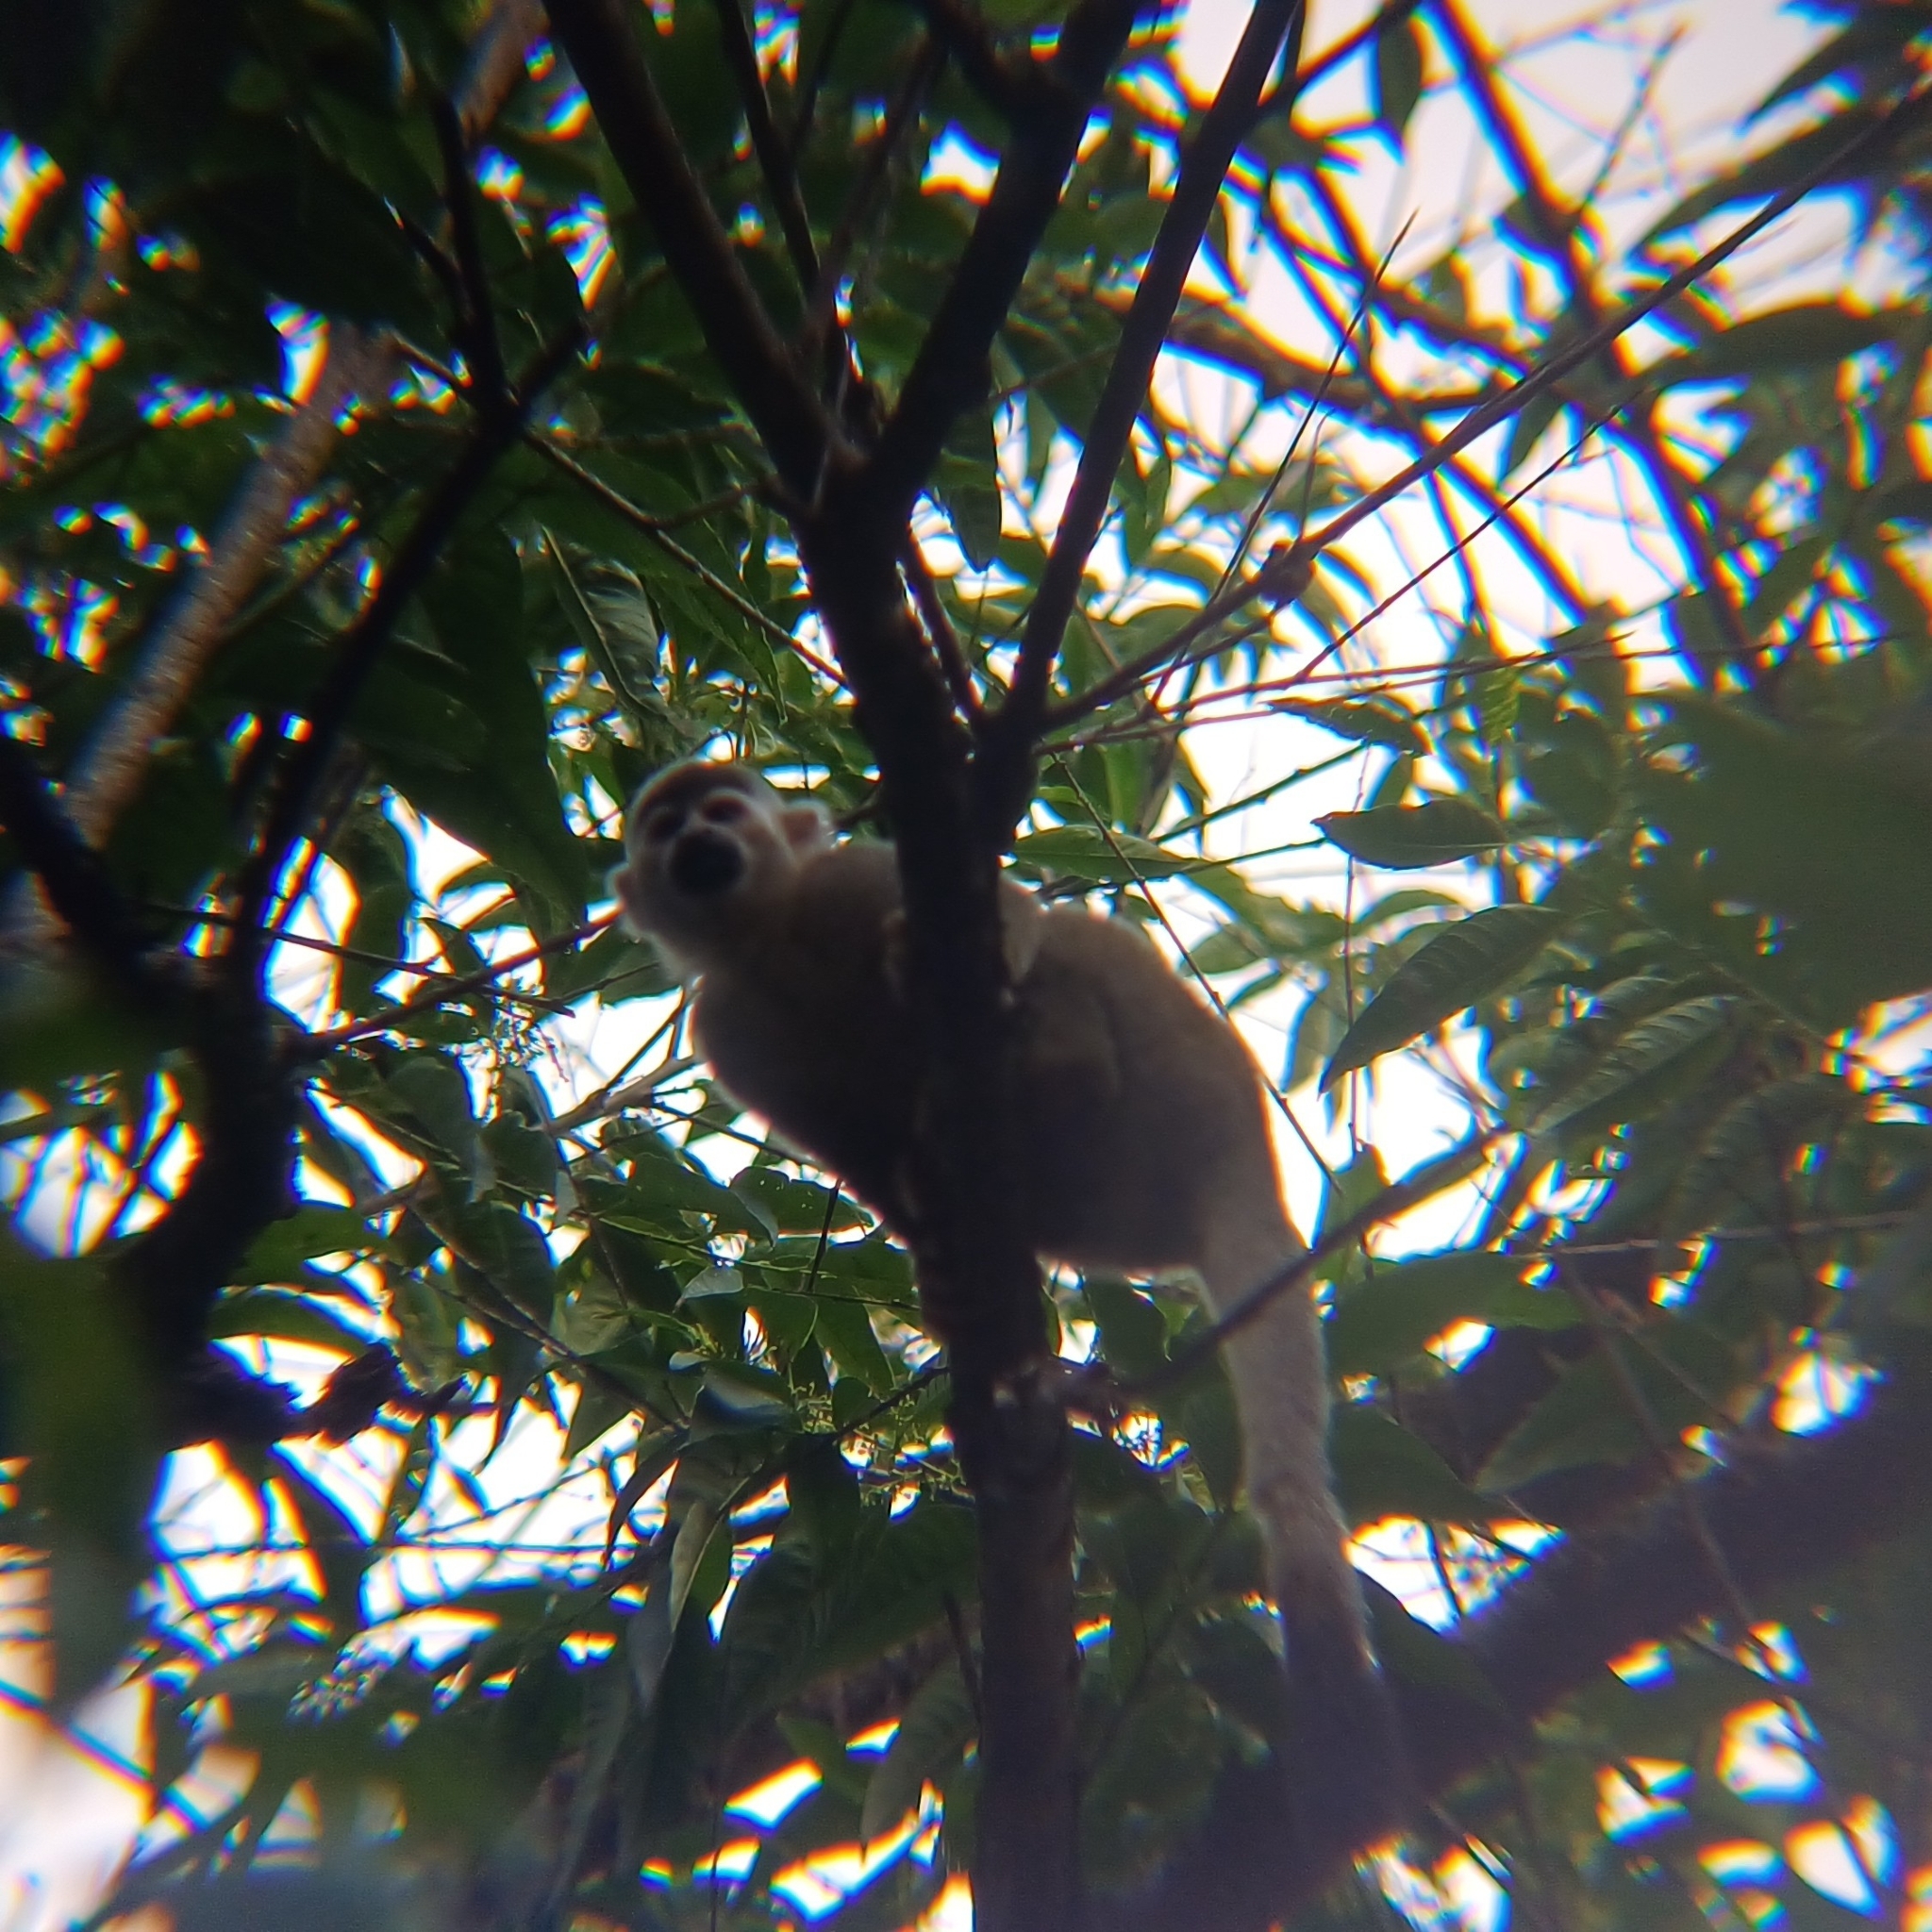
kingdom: Animalia
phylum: Chordata
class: Mammalia
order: Primates
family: Cebidae
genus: Saimiri
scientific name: Saimiri cassiquiarensis
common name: Humboldt’s squirrel monkey
